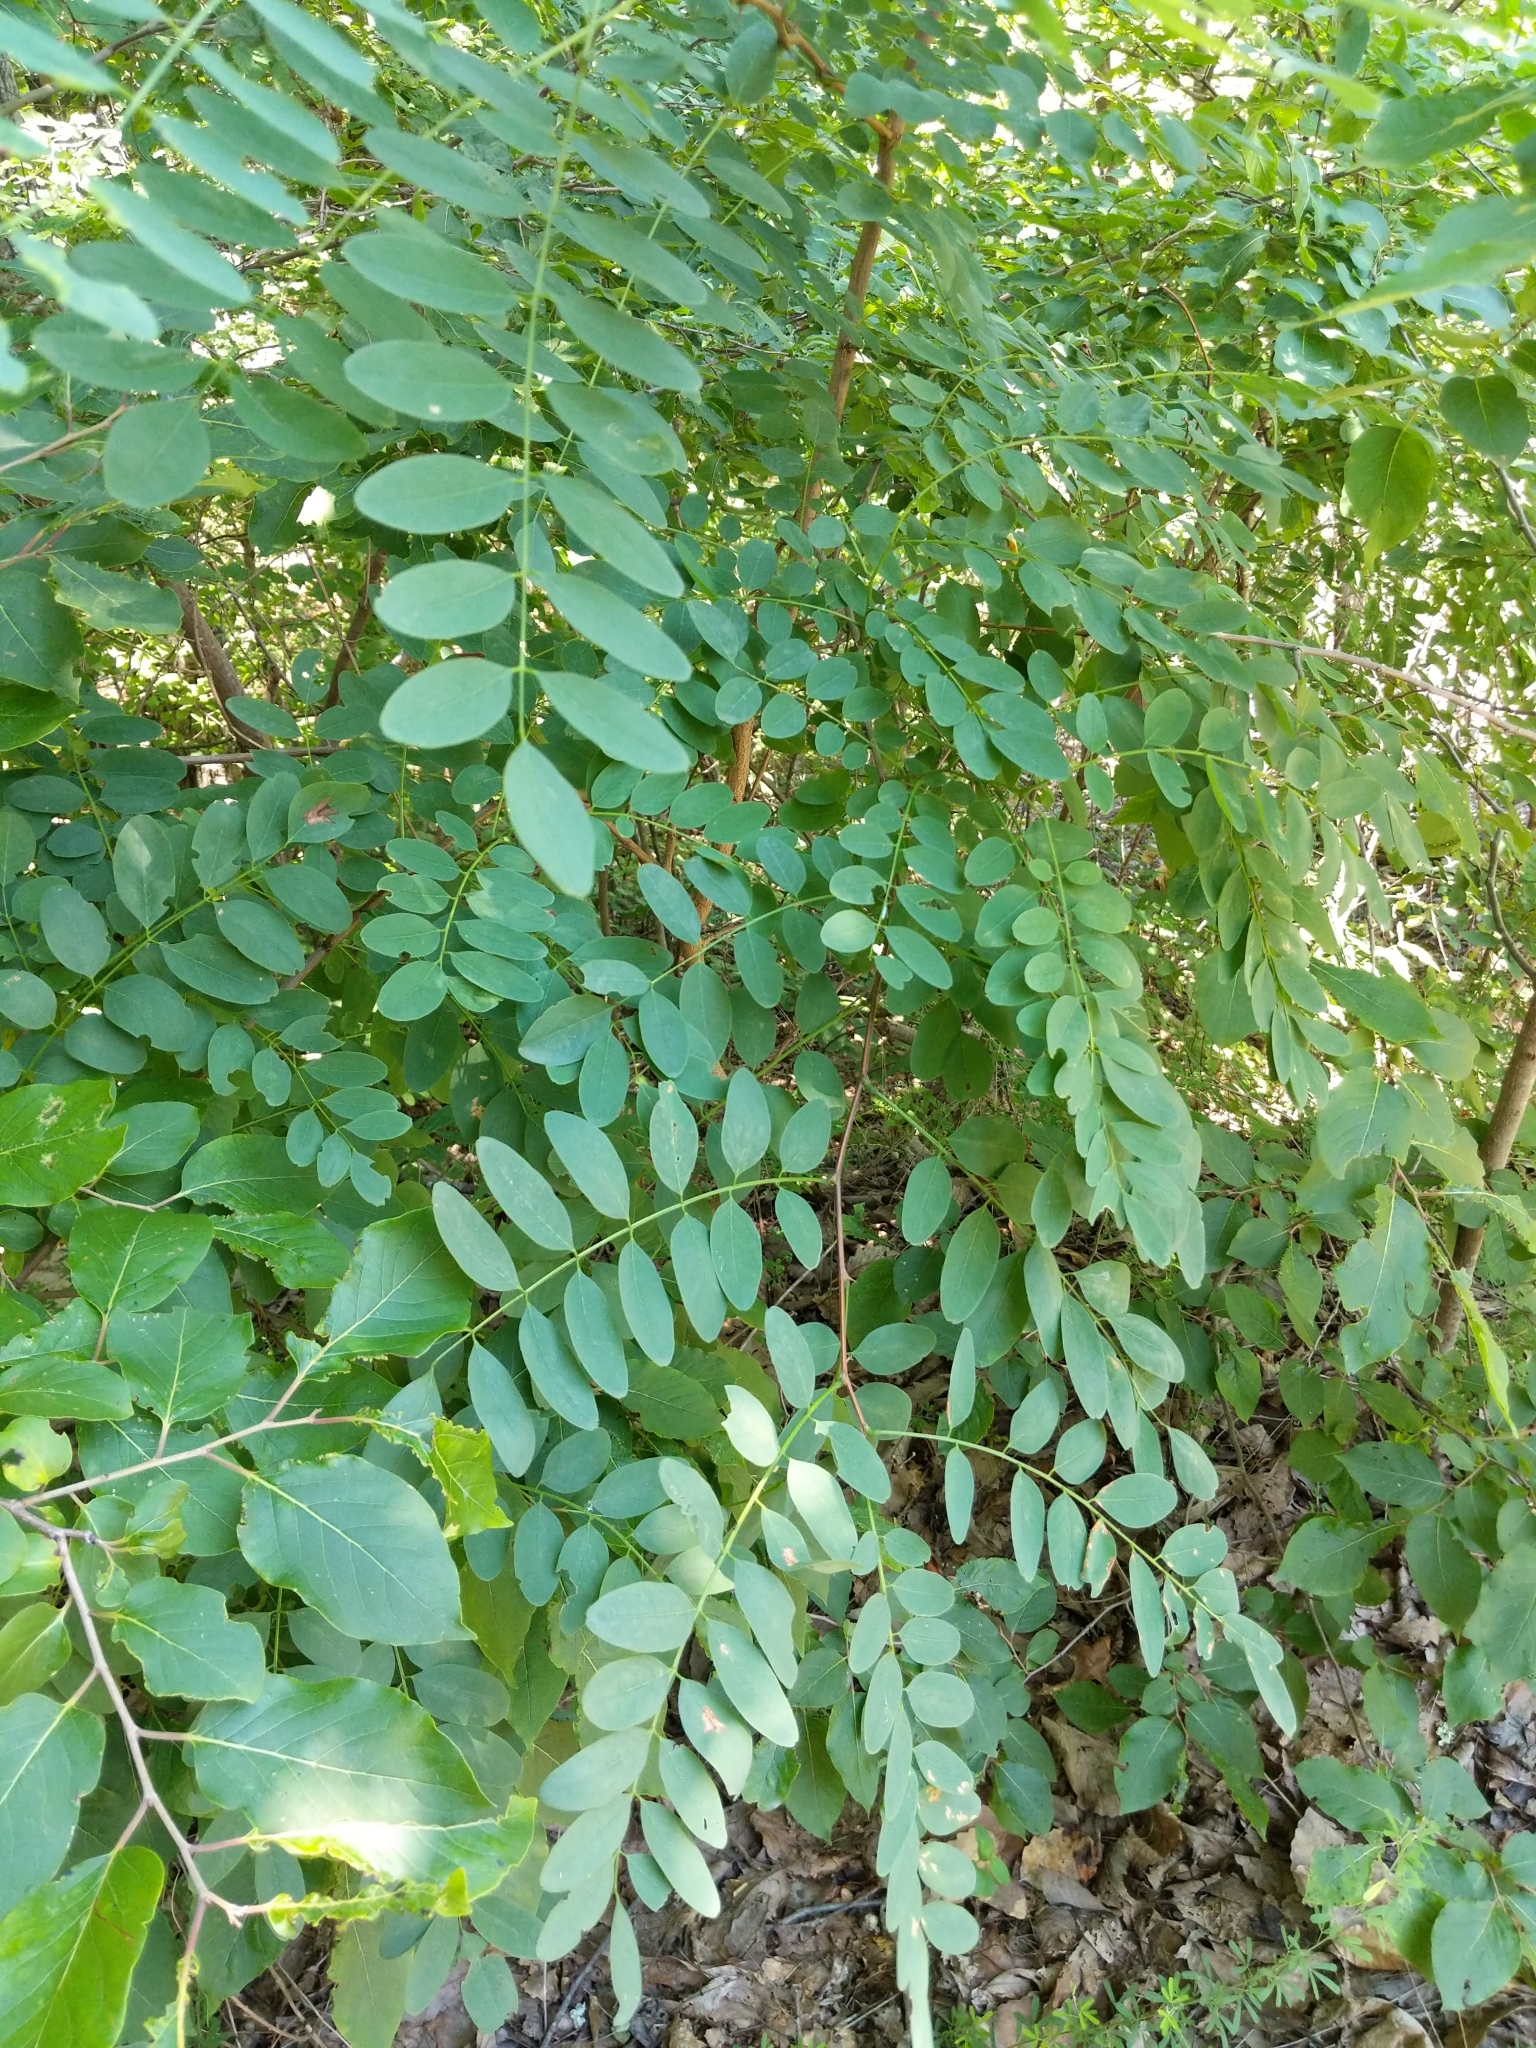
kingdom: Plantae
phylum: Tracheophyta
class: Magnoliopsida
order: Fabales
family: Fabaceae
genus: Robinia
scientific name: Robinia pseudoacacia
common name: Black locust
